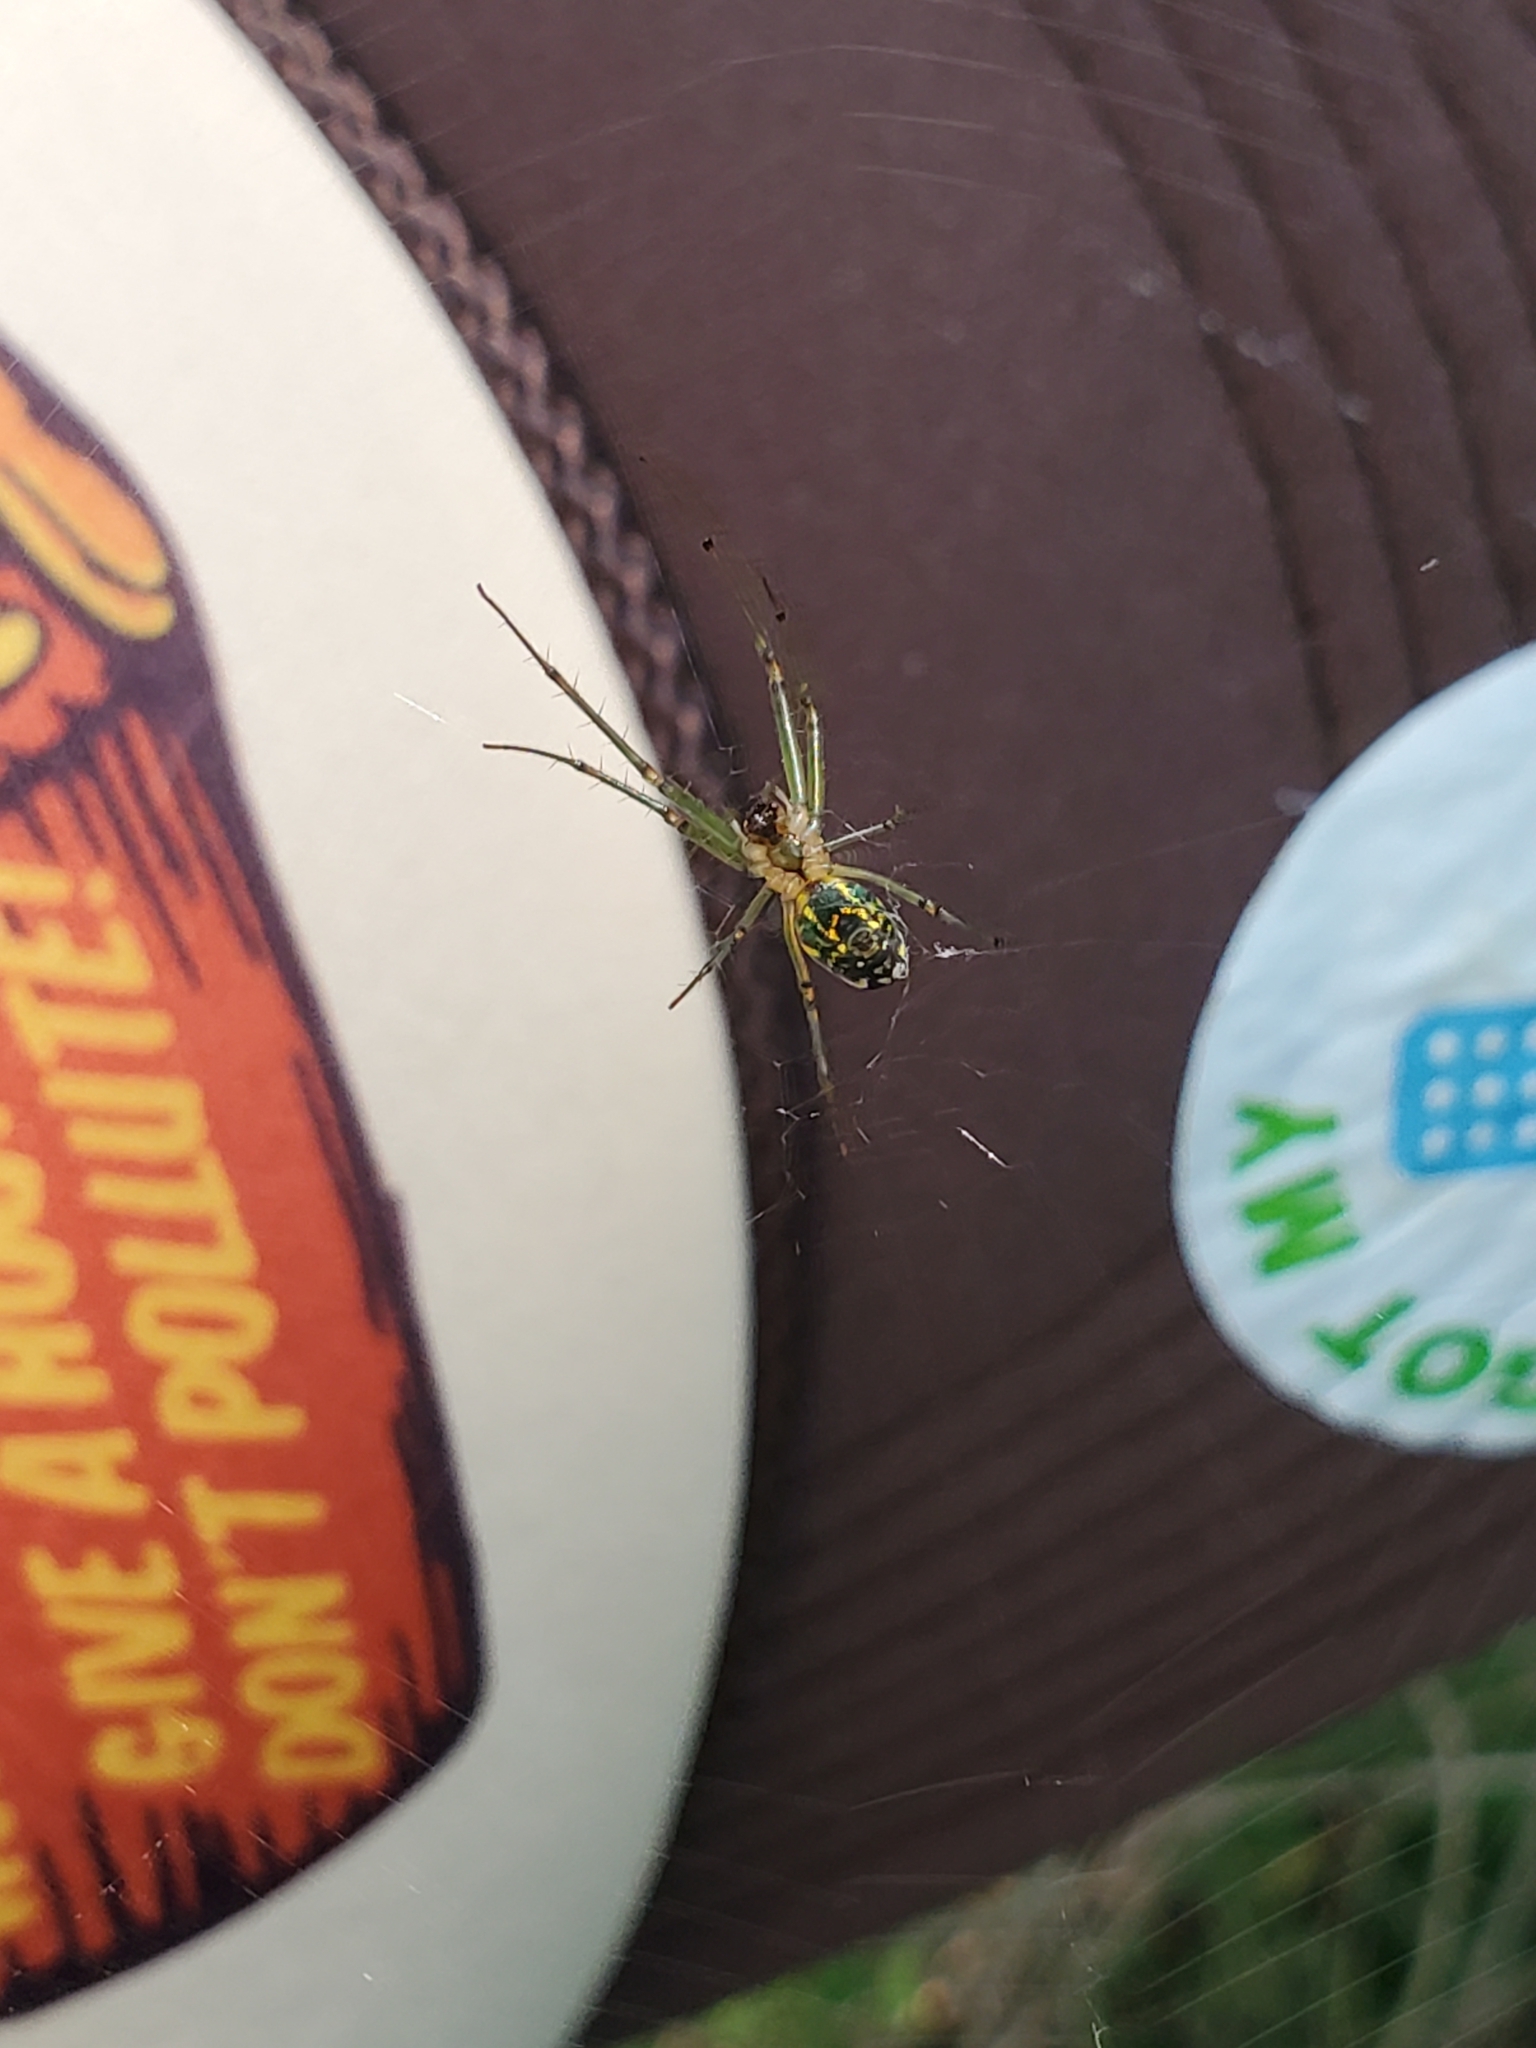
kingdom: Animalia
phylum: Arthropoda
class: Arachnida
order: Araneae
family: Tetragnathidae
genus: Leucauge
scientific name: Leucauge venusta
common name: Longjawed orb weavers
